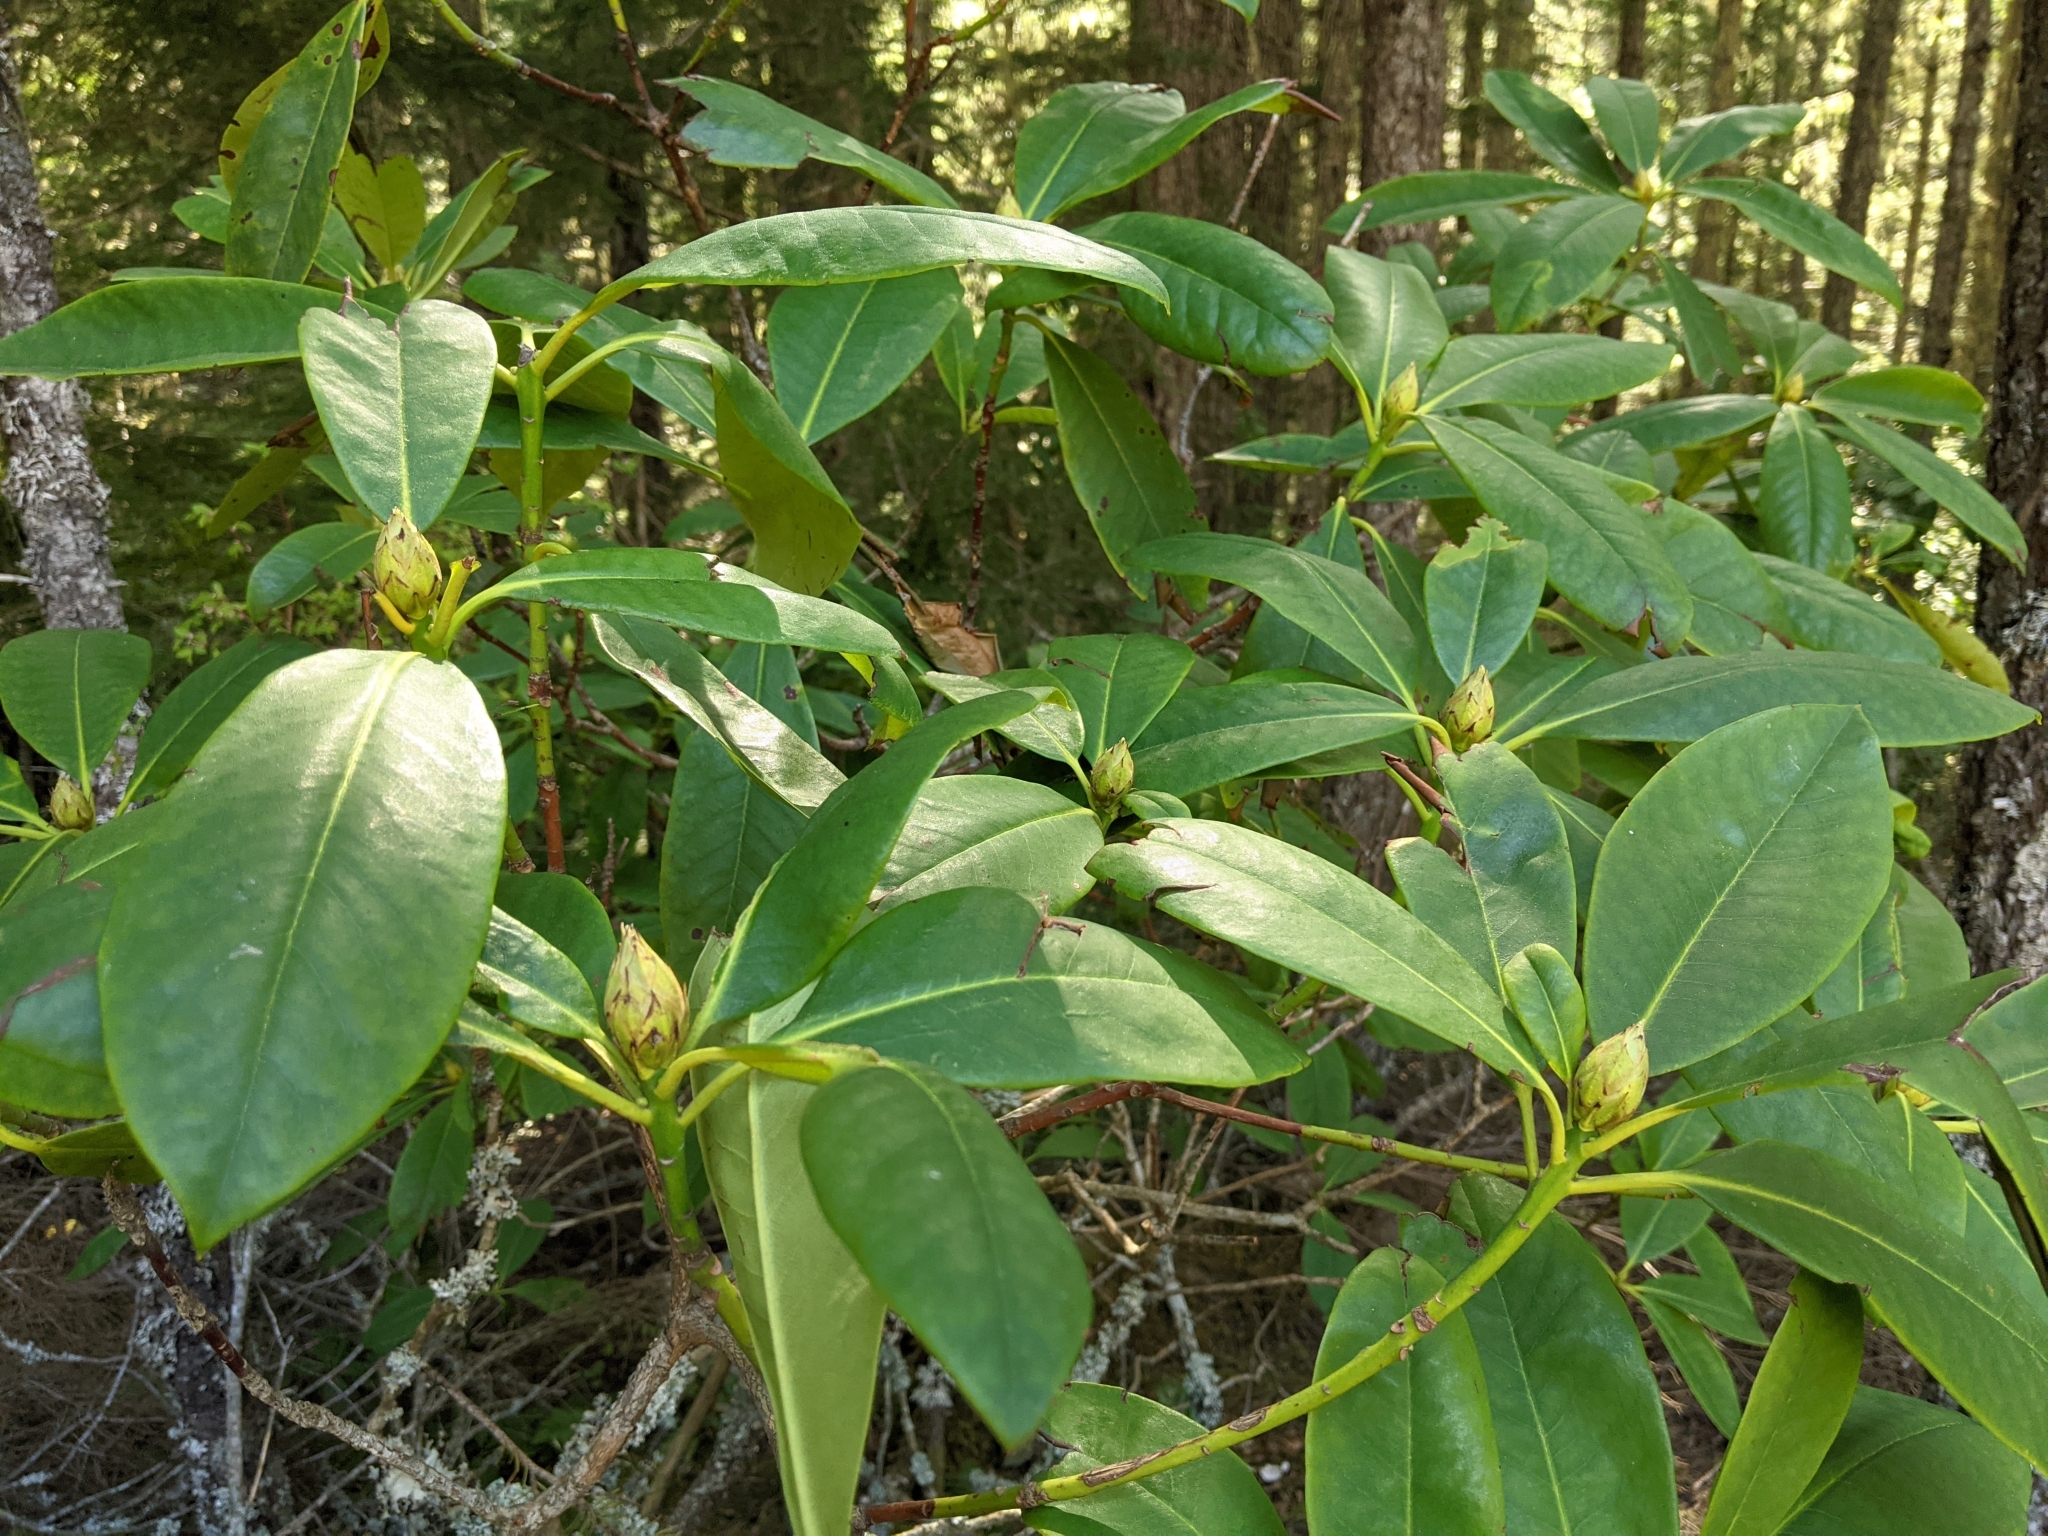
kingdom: Plantae
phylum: Tracheophyta
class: Magnoliopsida
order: Ericales
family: Ericaceae
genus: Rhododendron
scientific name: Rhododendron macrophyllum
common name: California rose bay
